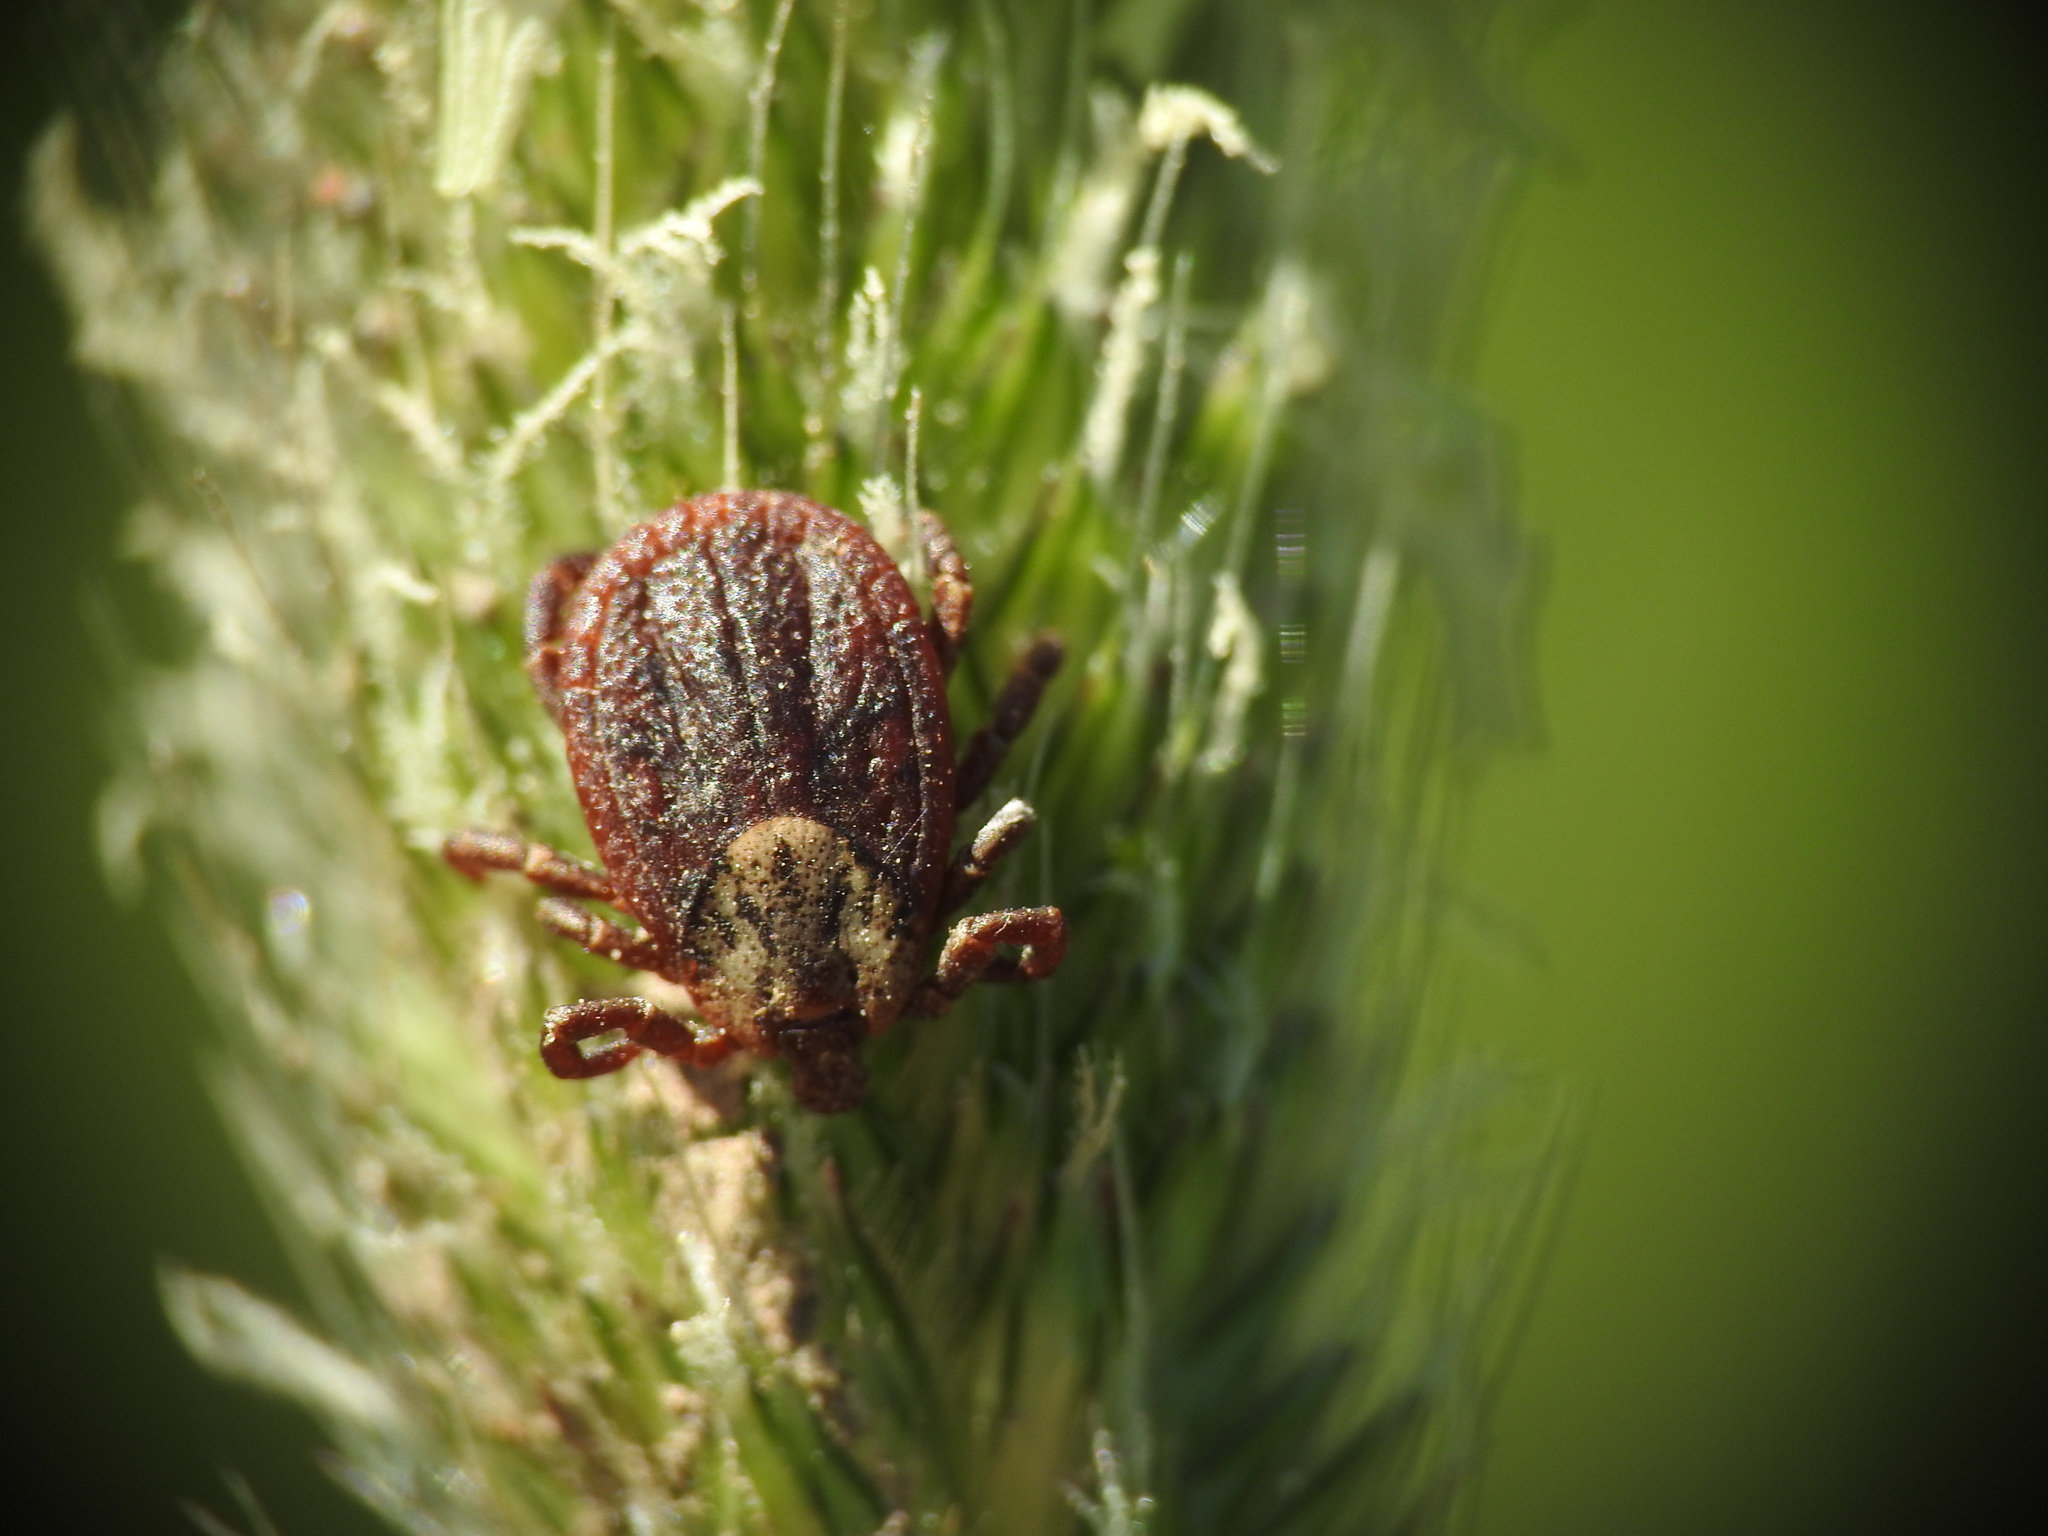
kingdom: Animalia
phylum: Arthropoda
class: Arachnida
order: Ixodida
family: Ixodidae
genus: Dermacentor
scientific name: Dermacentor reticulatus
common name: Ornate cow tick
